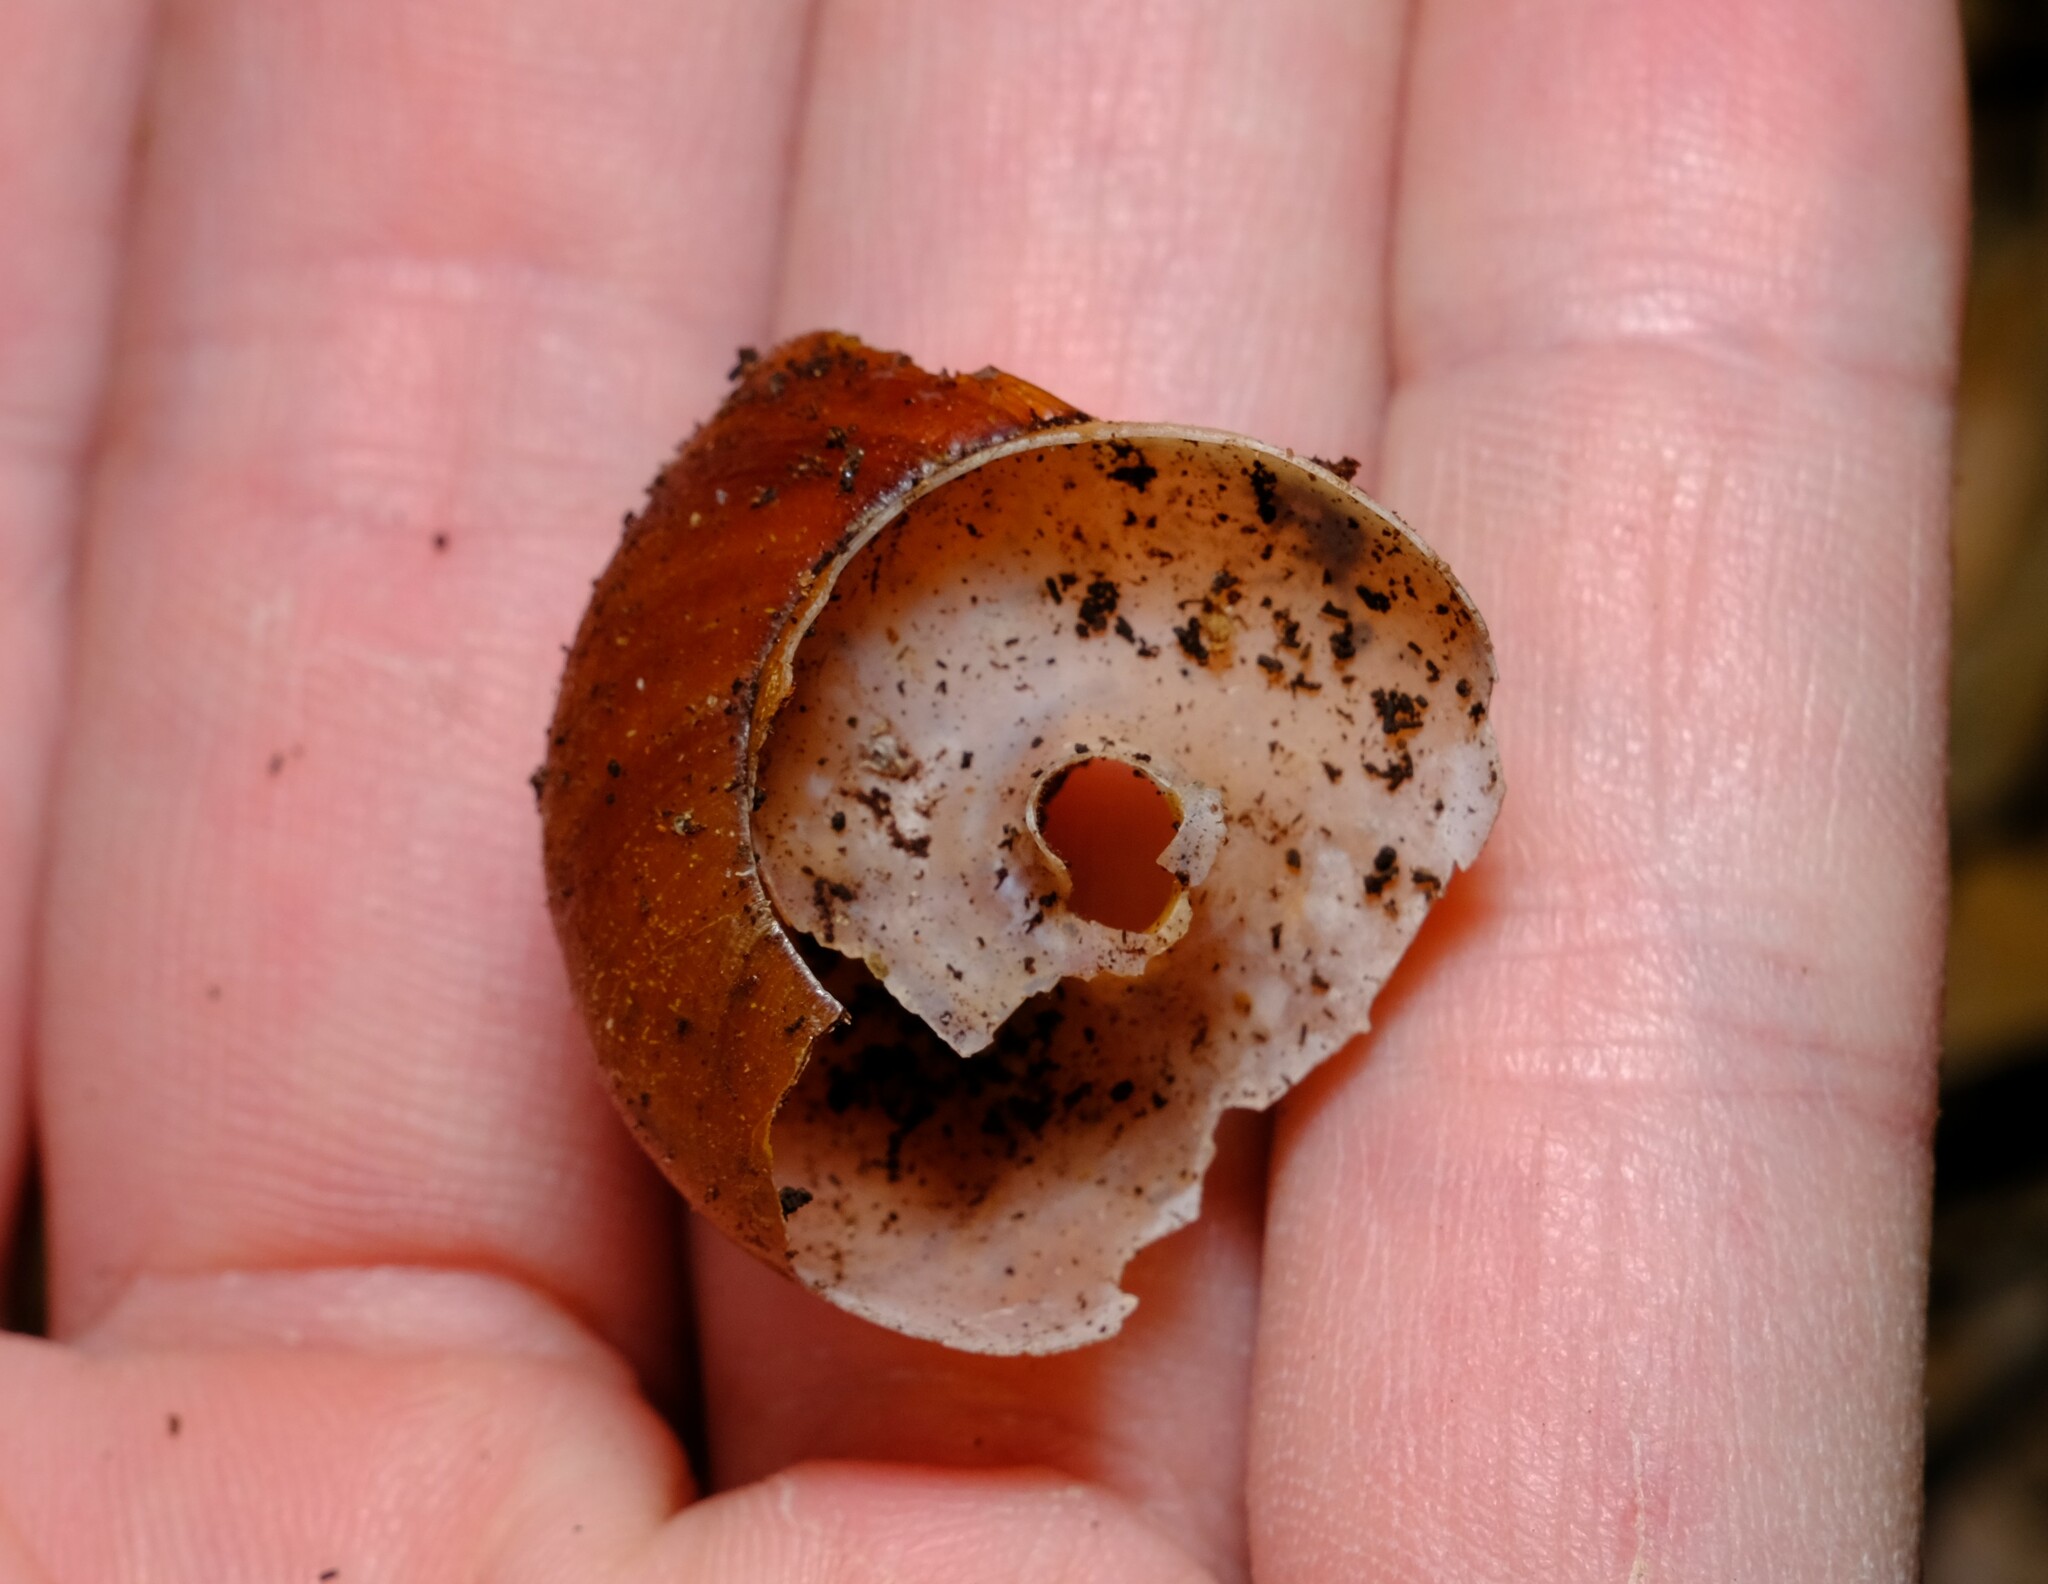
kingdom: Animalia
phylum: Mollusca
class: Gastropoda
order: Stylommatophora
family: Rhytididae
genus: Terrycarlessia
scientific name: Terrycarlessia turbinata
